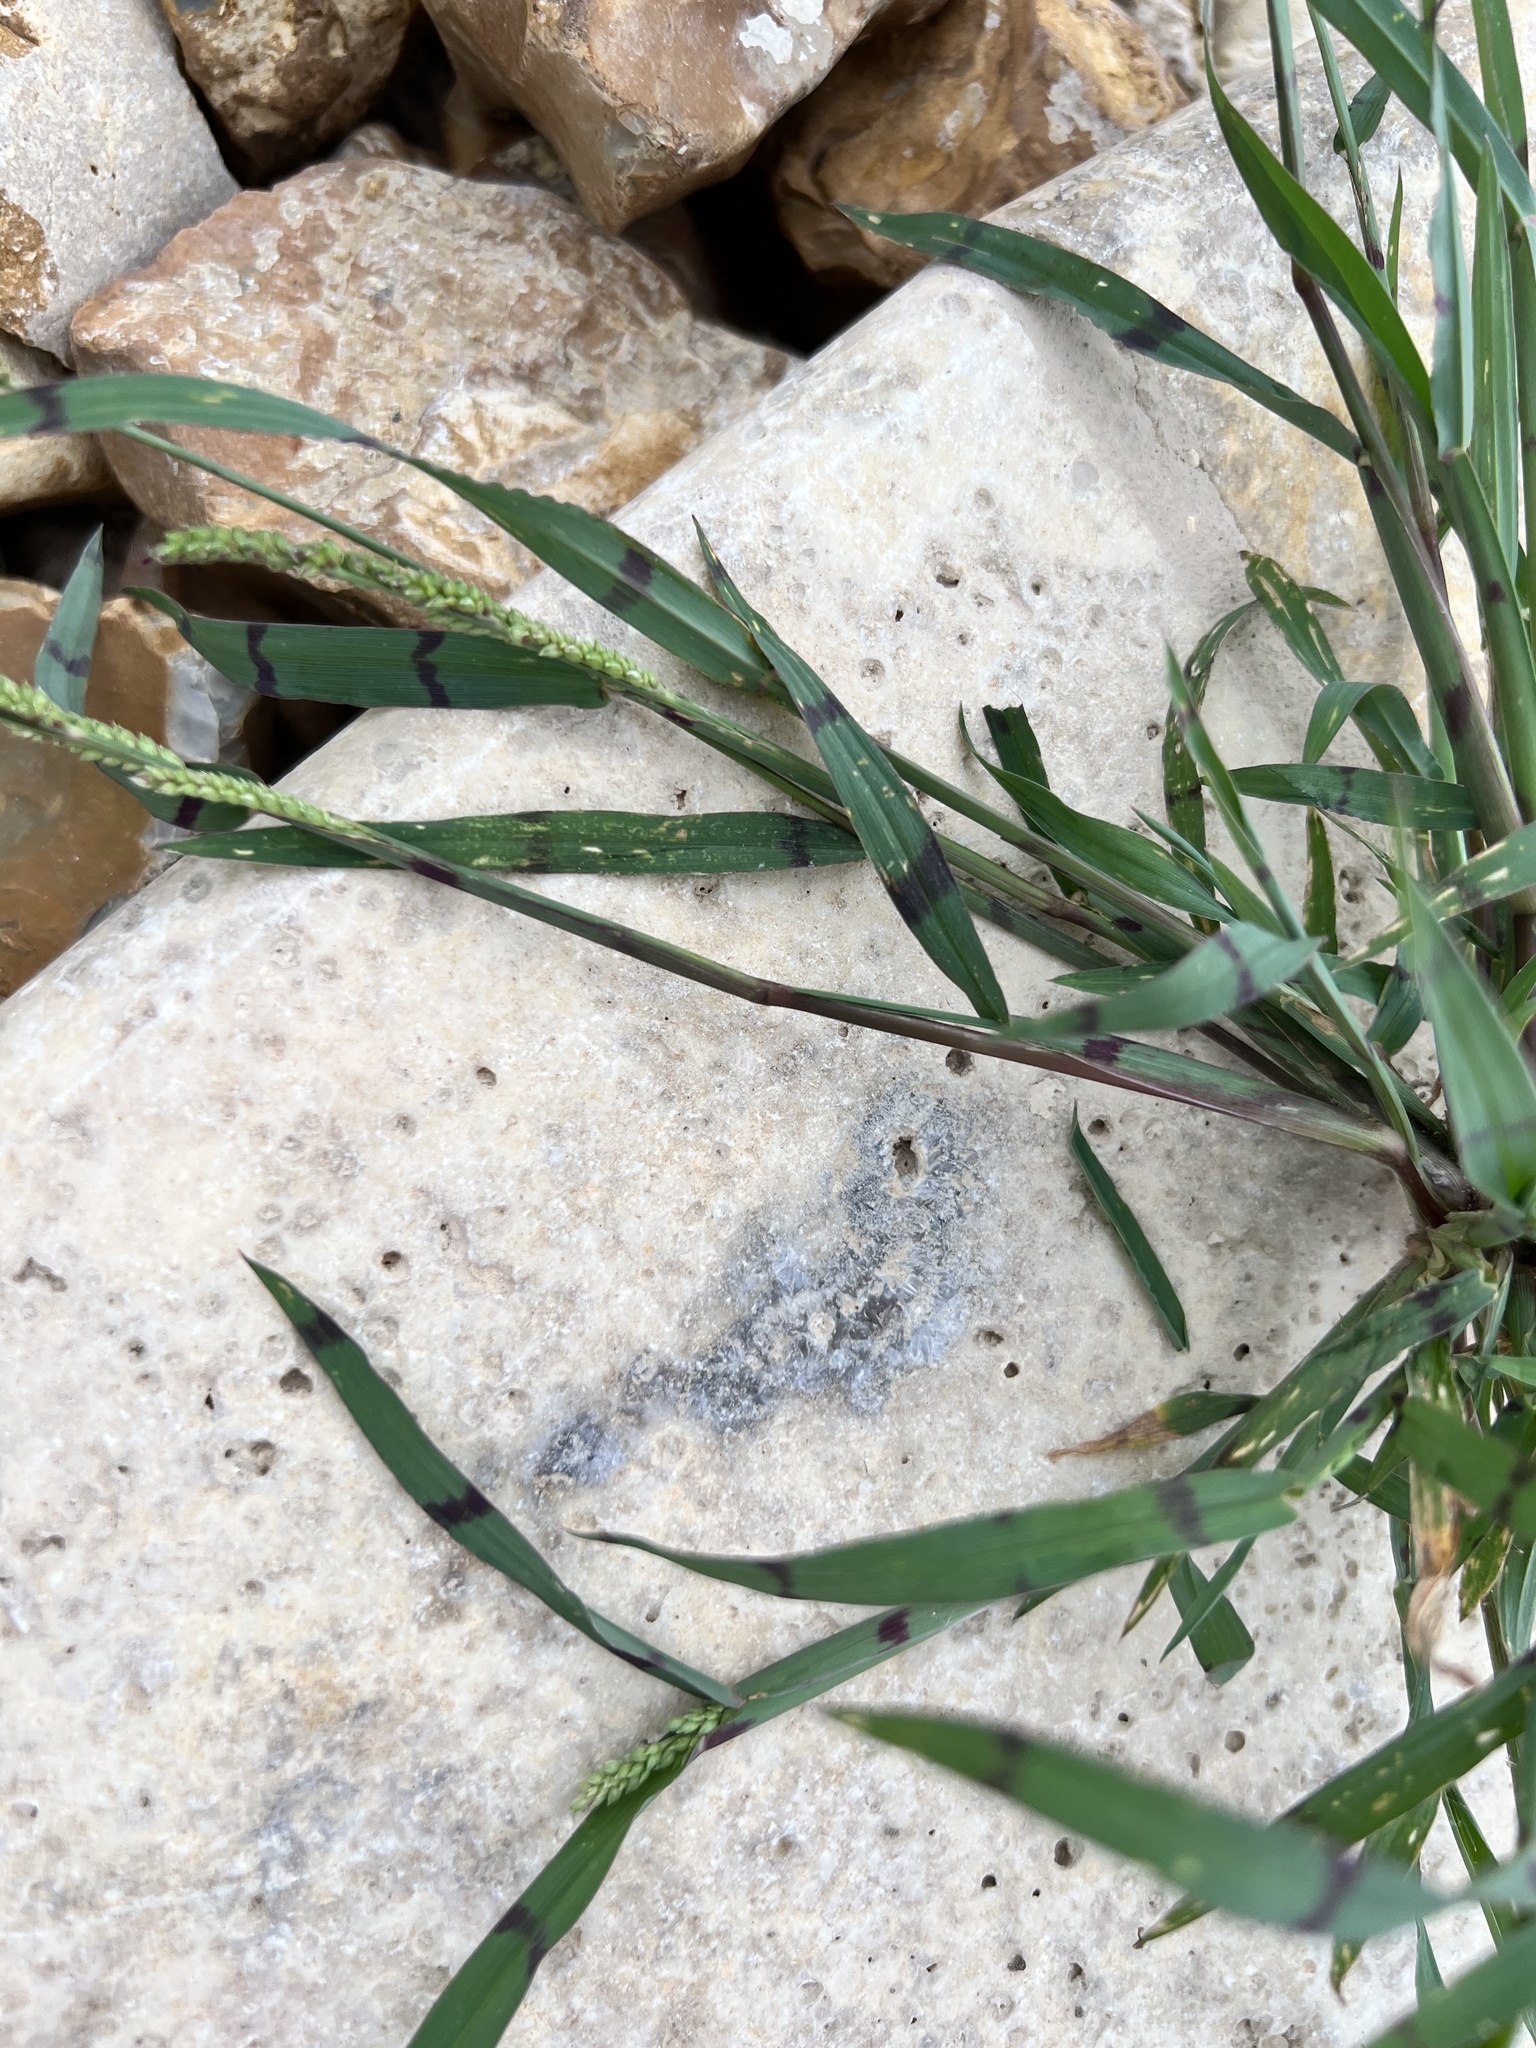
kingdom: Plantae
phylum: Tracheophyta
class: Liliopsida
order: Poales
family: Poaceae
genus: Echinochloa
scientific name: Echinochloa colonum
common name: Jungle rice
